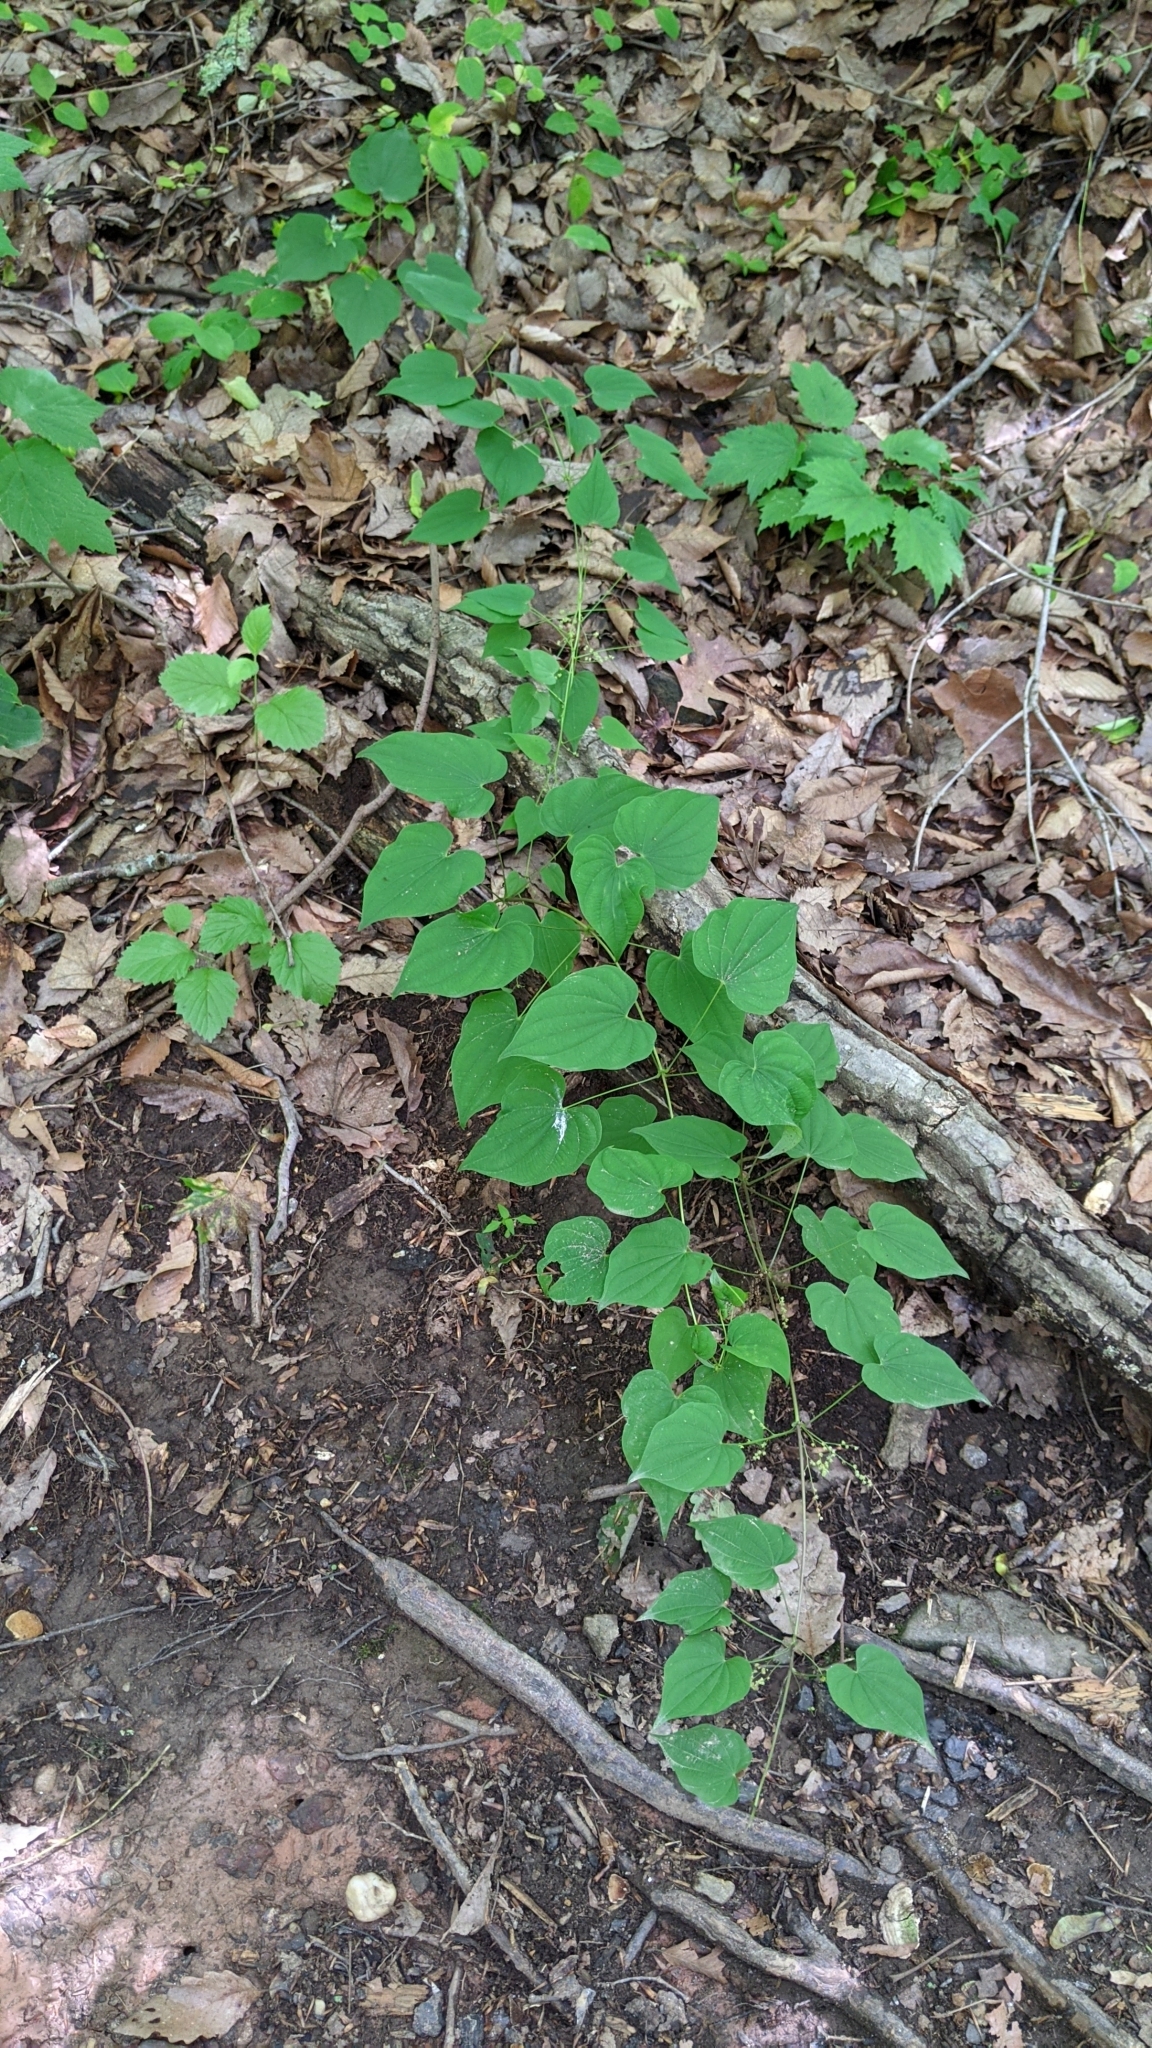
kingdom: Plantae
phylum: Tracheophyta
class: Liliopsida
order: Dioscoreales
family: Dioscoreaceae
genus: Dioscorea
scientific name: Dioscorea villosa
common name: Wild yam
